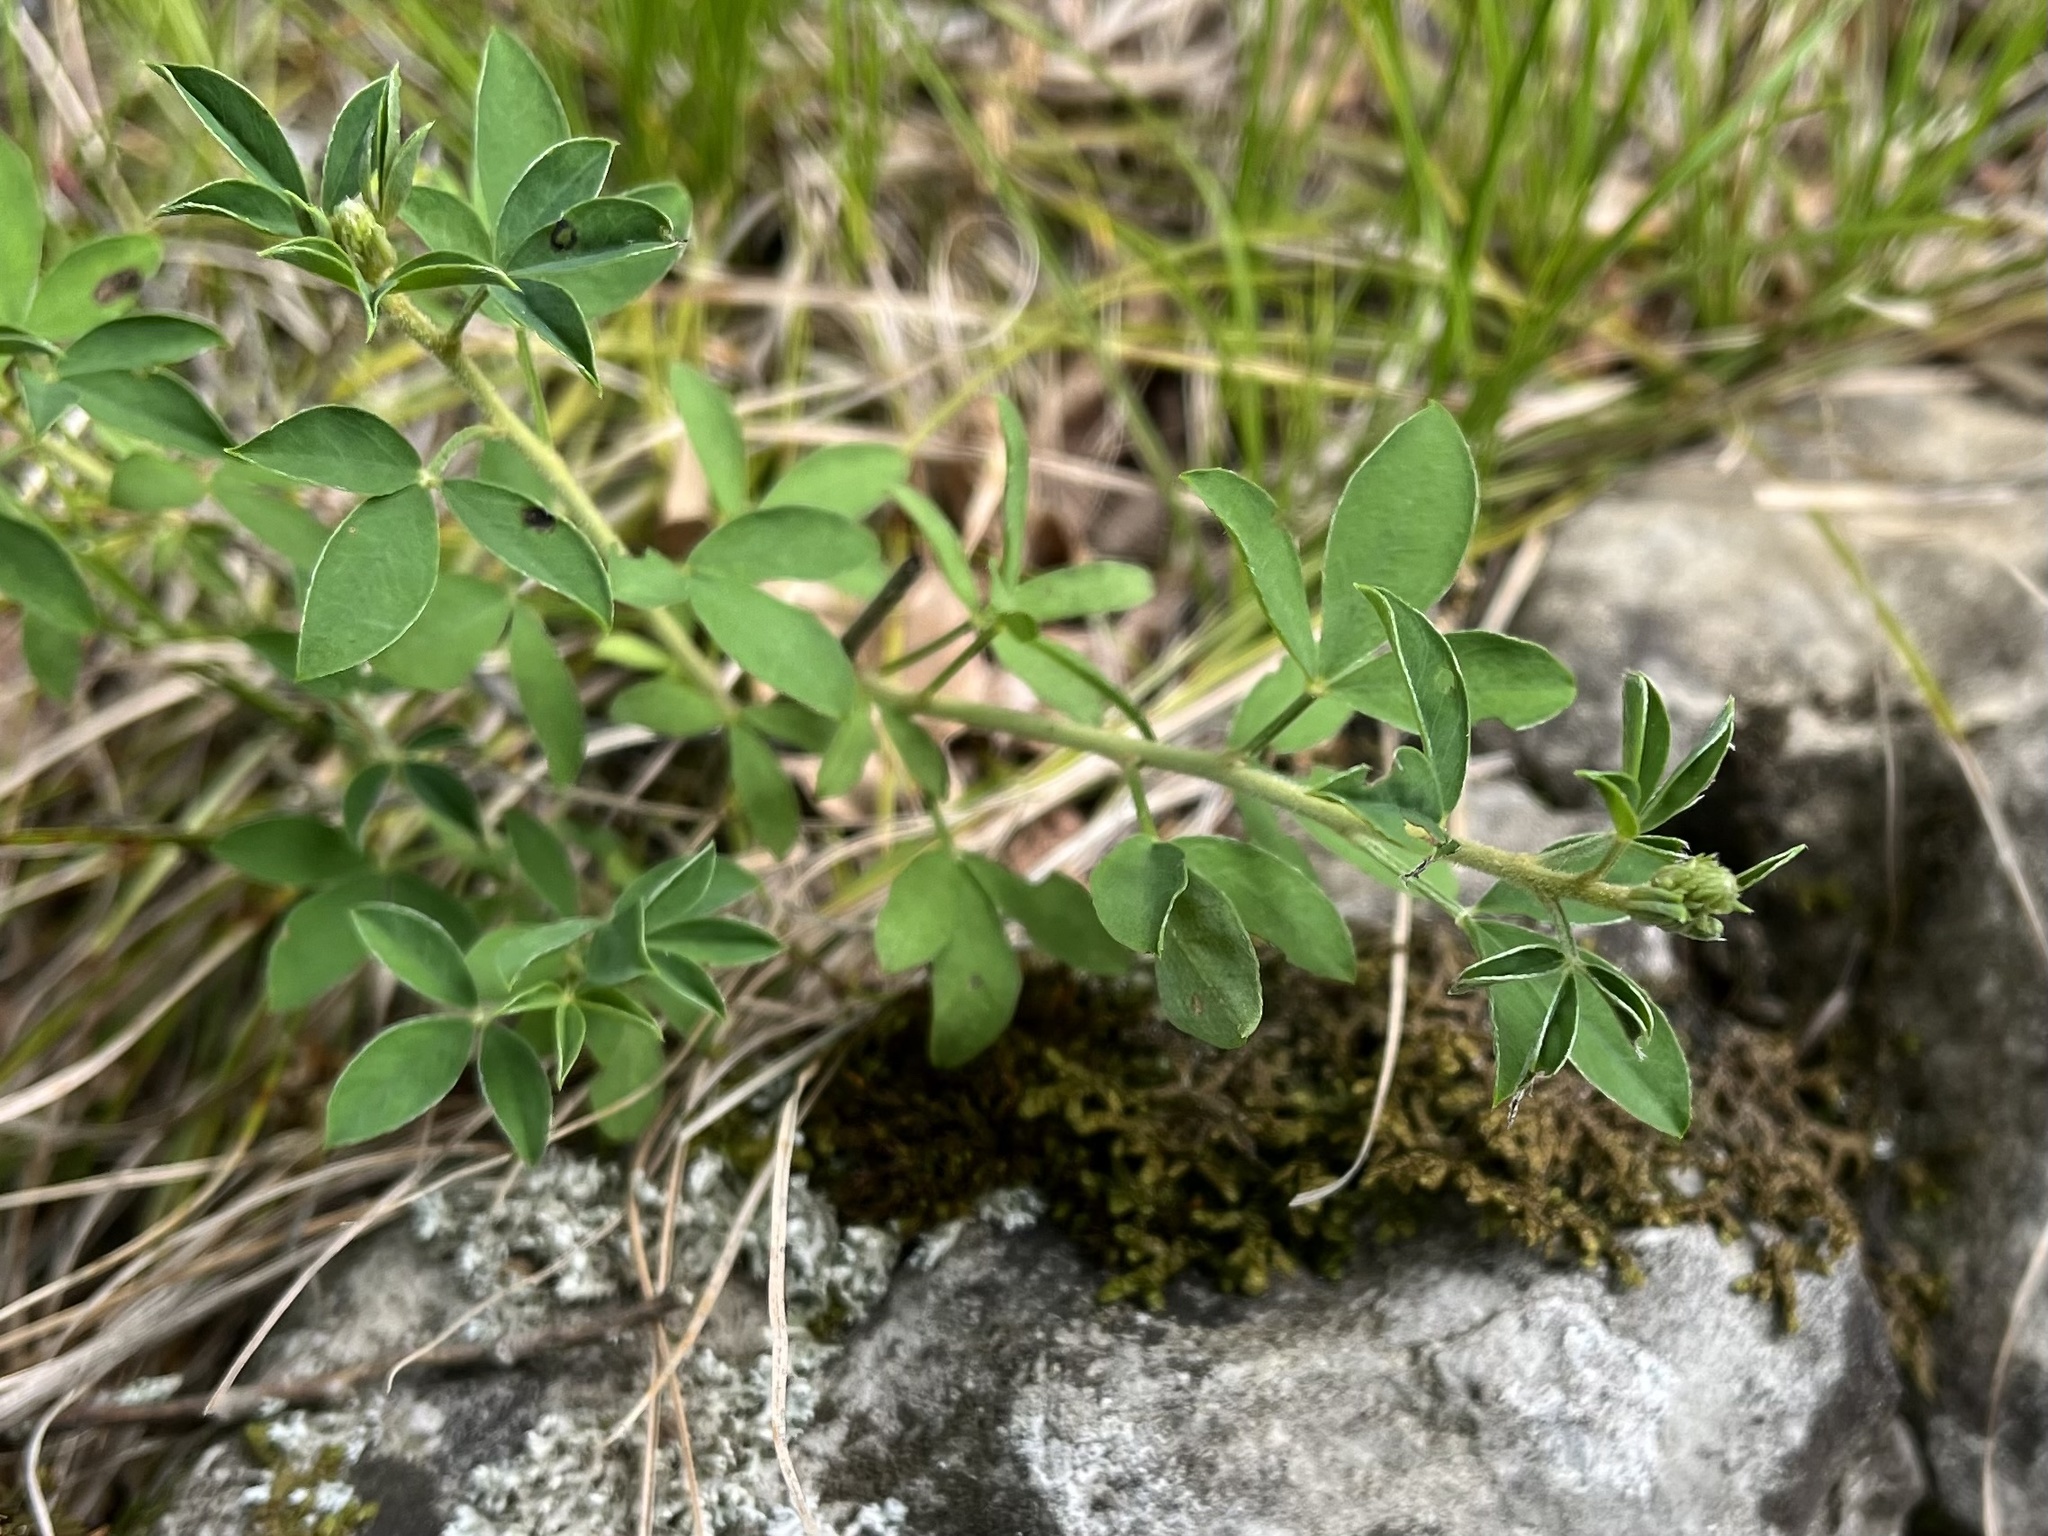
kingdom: Plantae
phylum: Tracheophyta
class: Magnoliopsida
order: Fabales
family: Fabaceae
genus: Cytisus
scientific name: Cytisus nigricans
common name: Black broom
